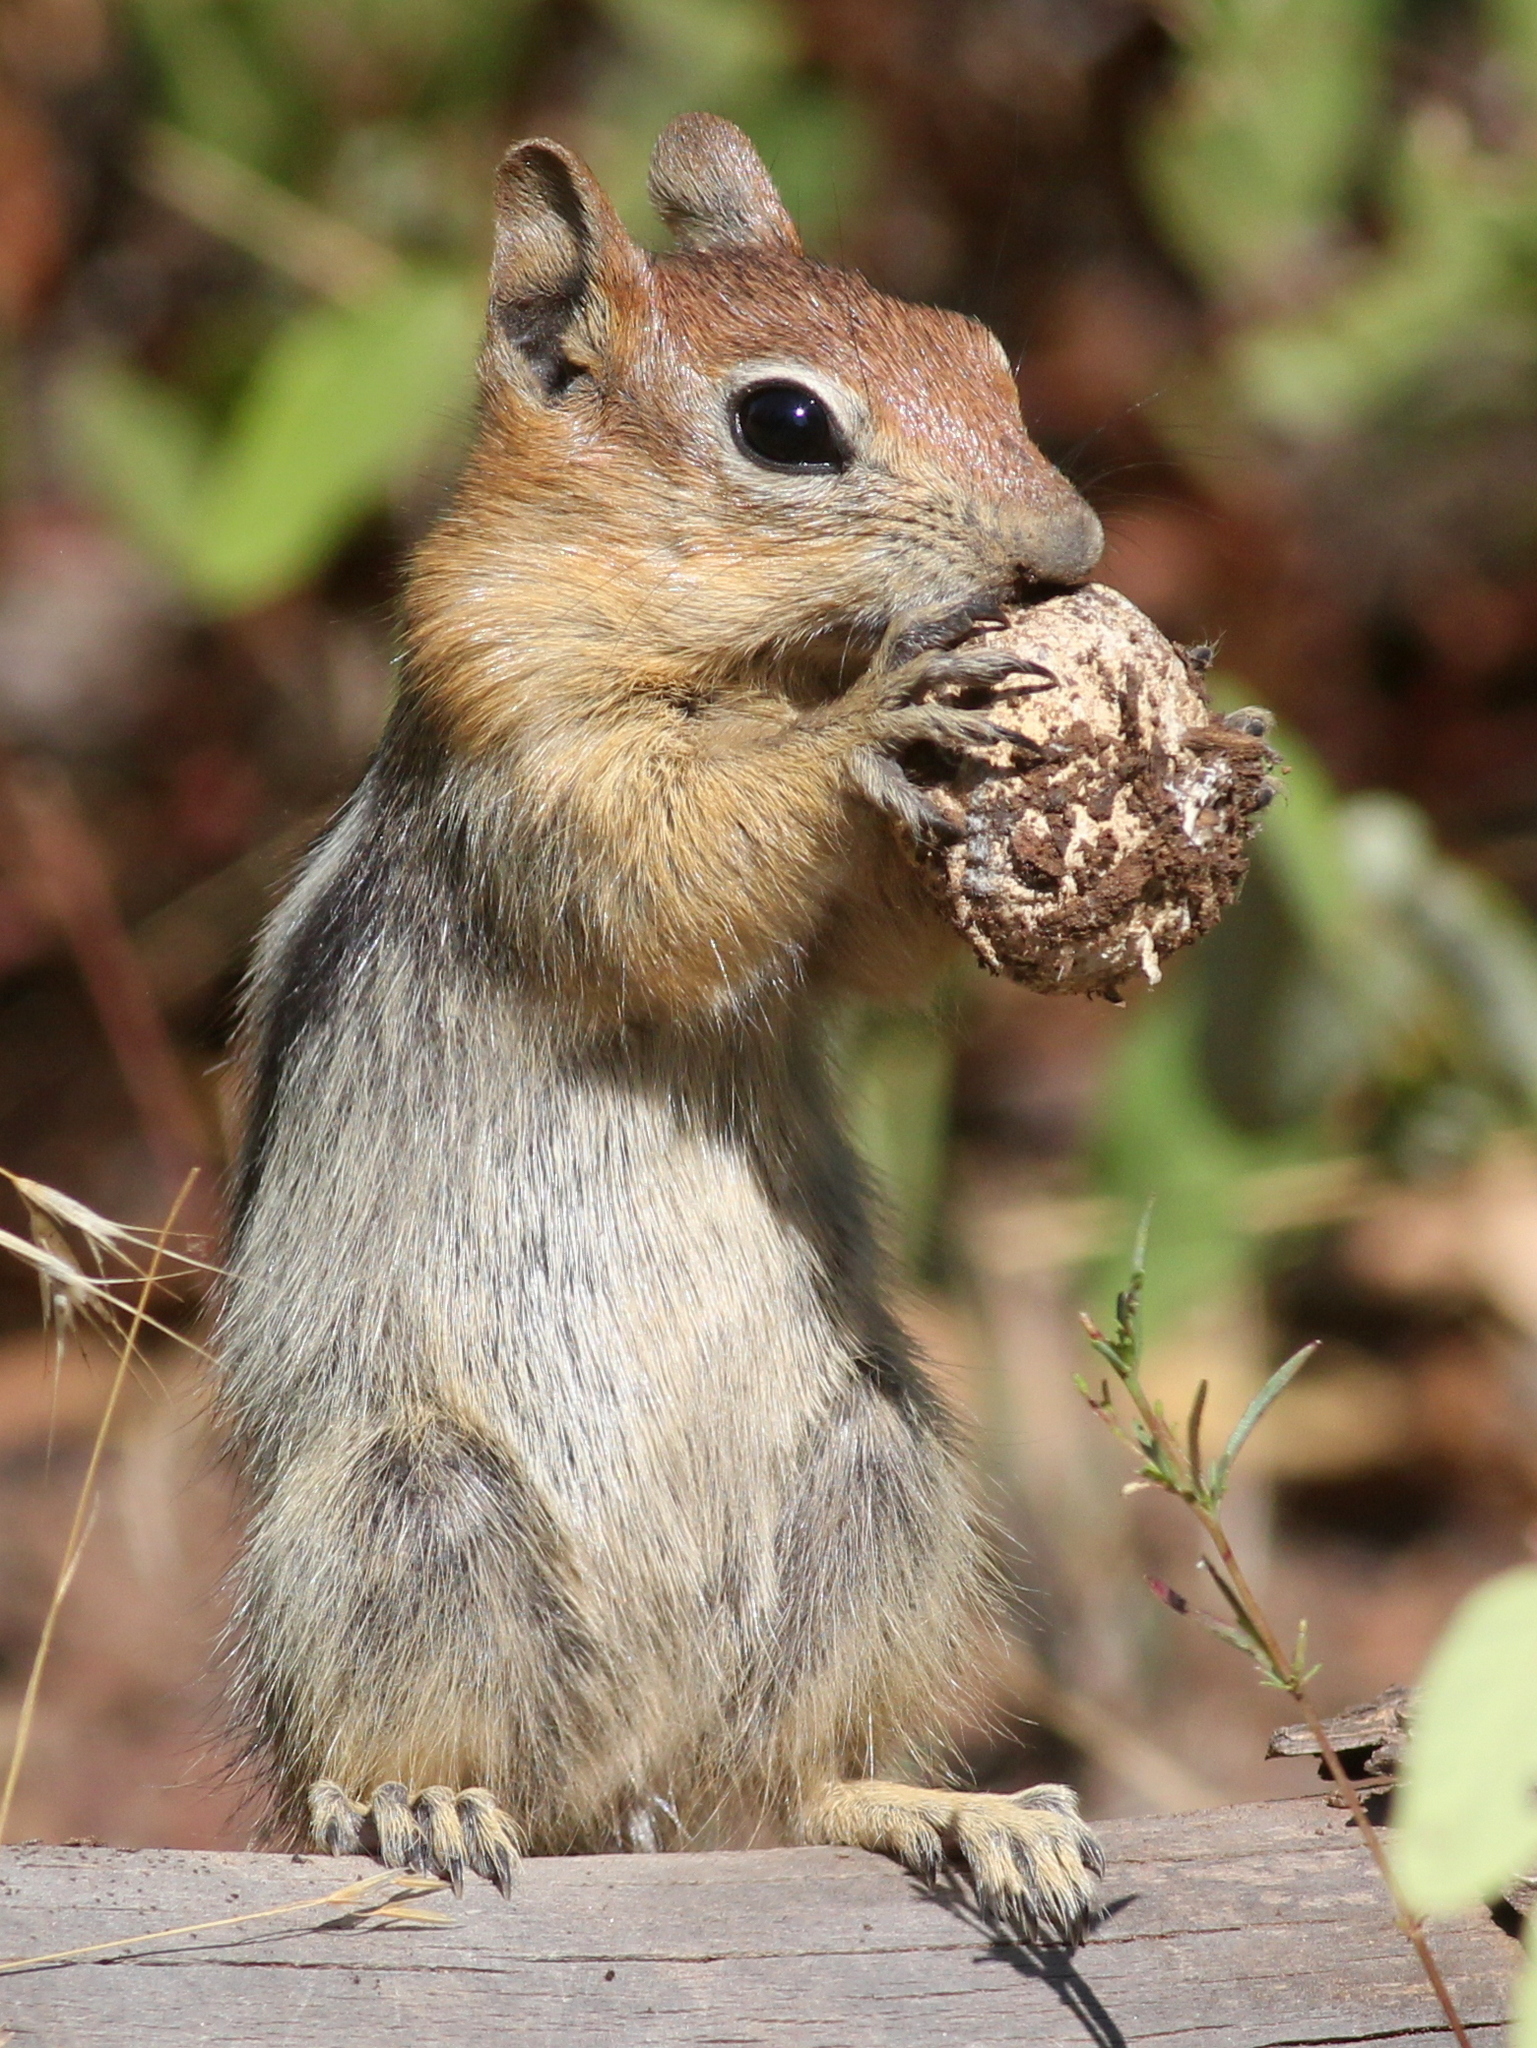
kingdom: Animalia
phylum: Chordata
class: Mammalia
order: Rodentia
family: Sciuridae
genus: Callospermophilus
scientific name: Callospermophilus lateralis
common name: Golden-mantled ground squirrel
